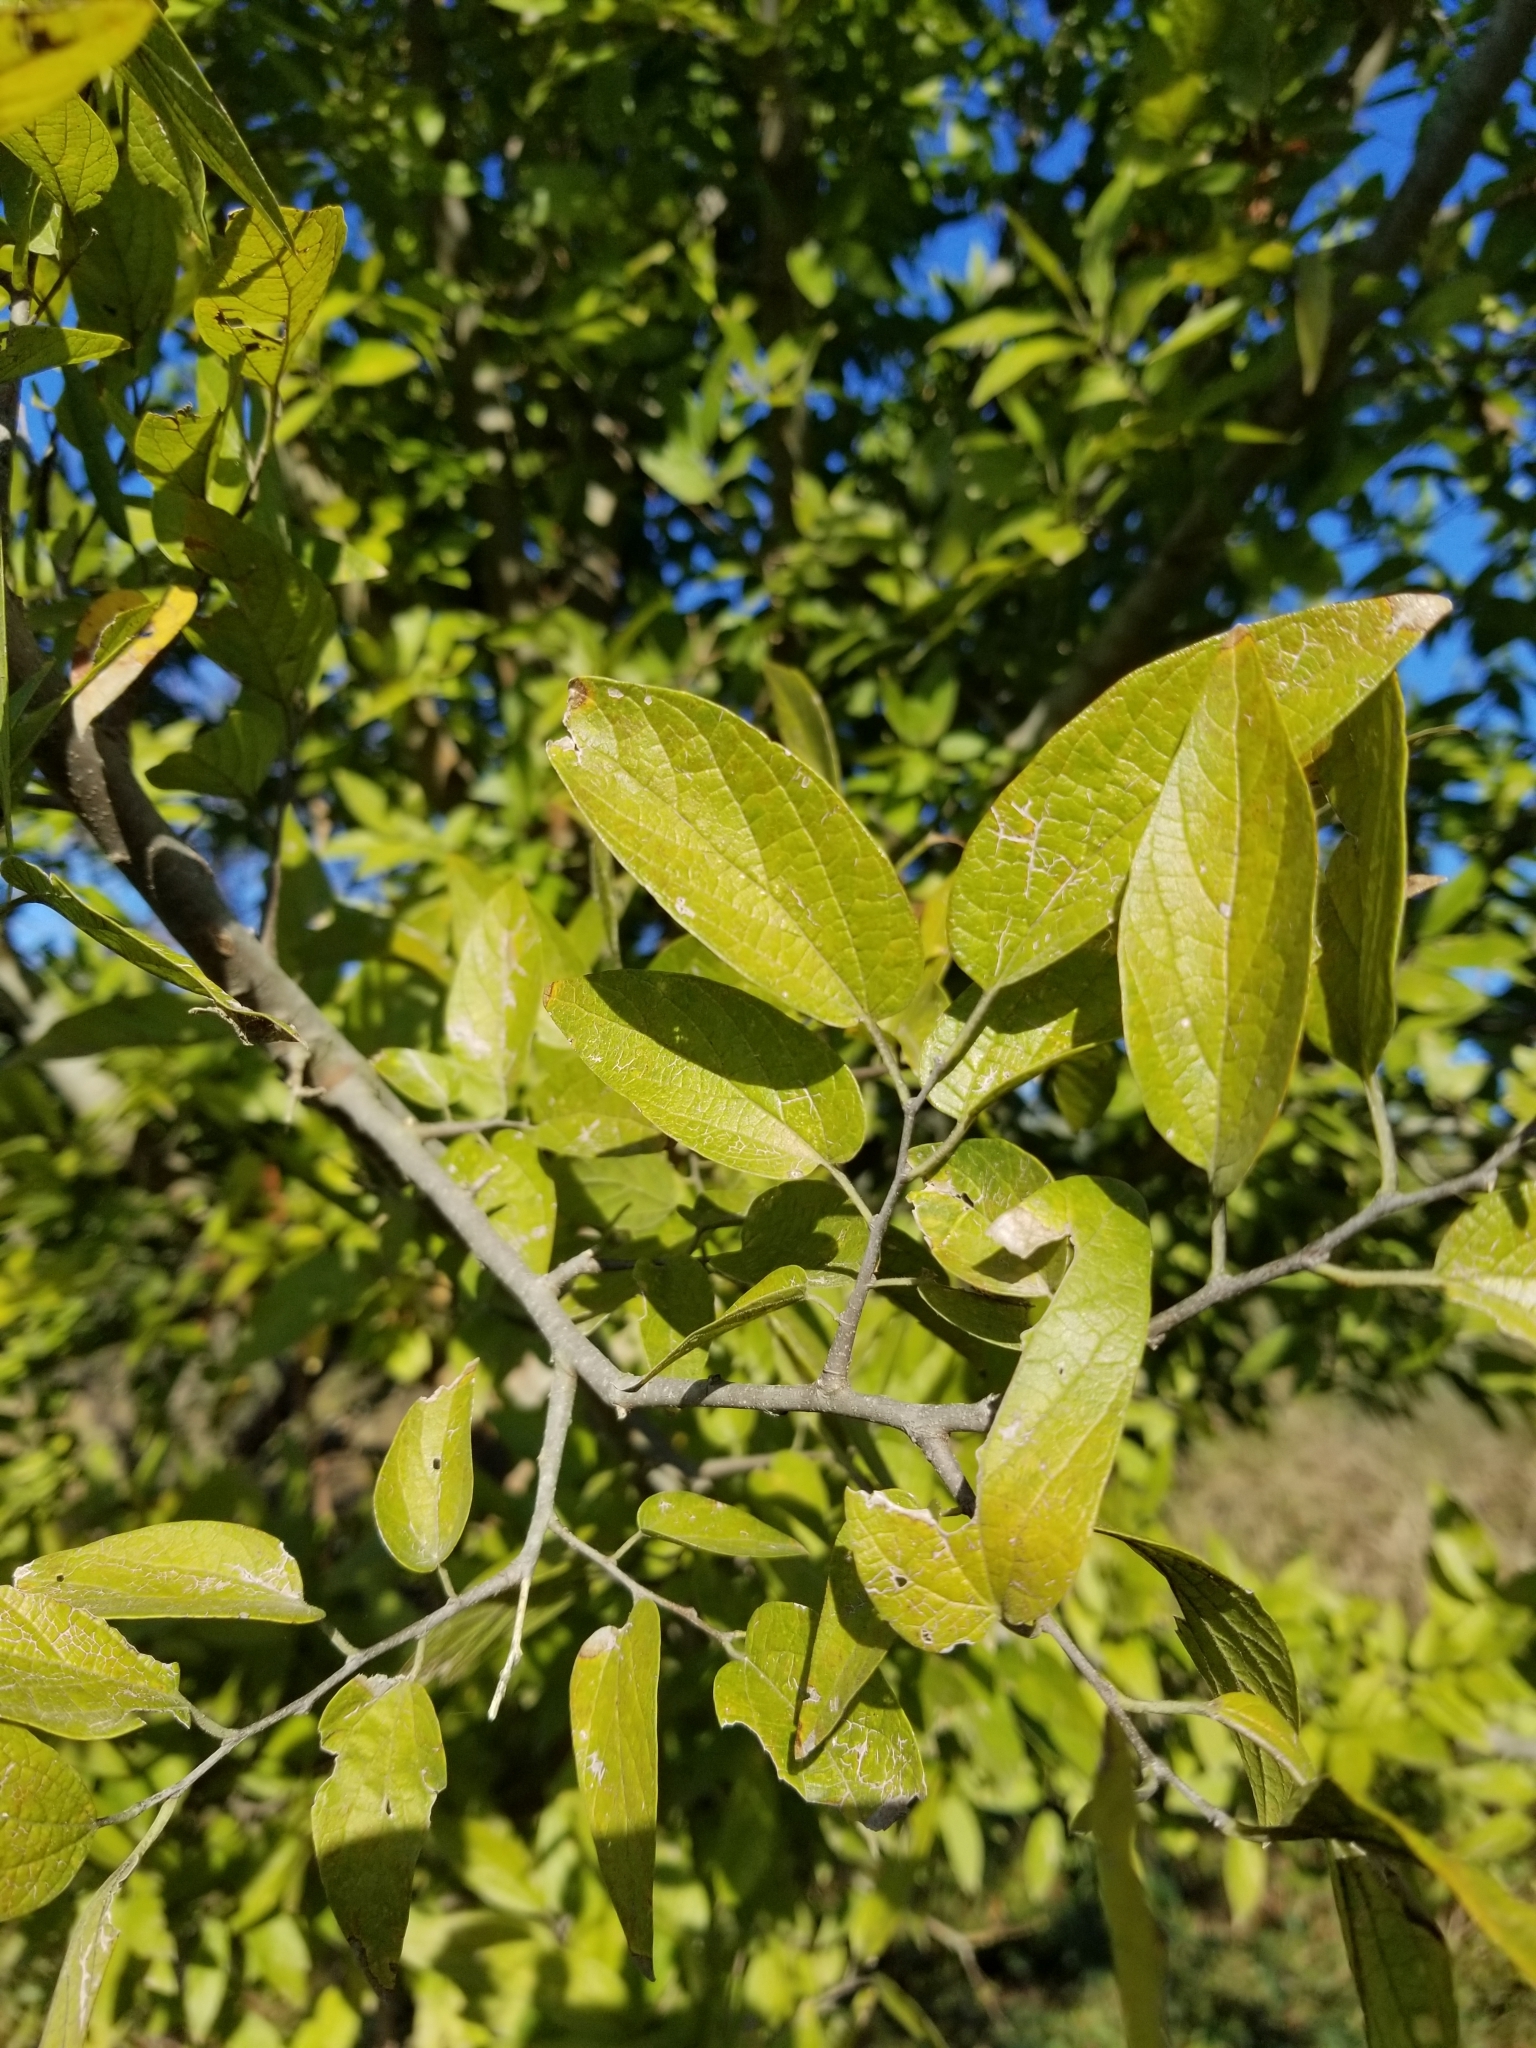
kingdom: Plantae
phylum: Tracheophyta
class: Magnoliopsida
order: Rosales
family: Cannabaceae
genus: Celtis
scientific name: Celtis laevigata
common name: Sugarberry
